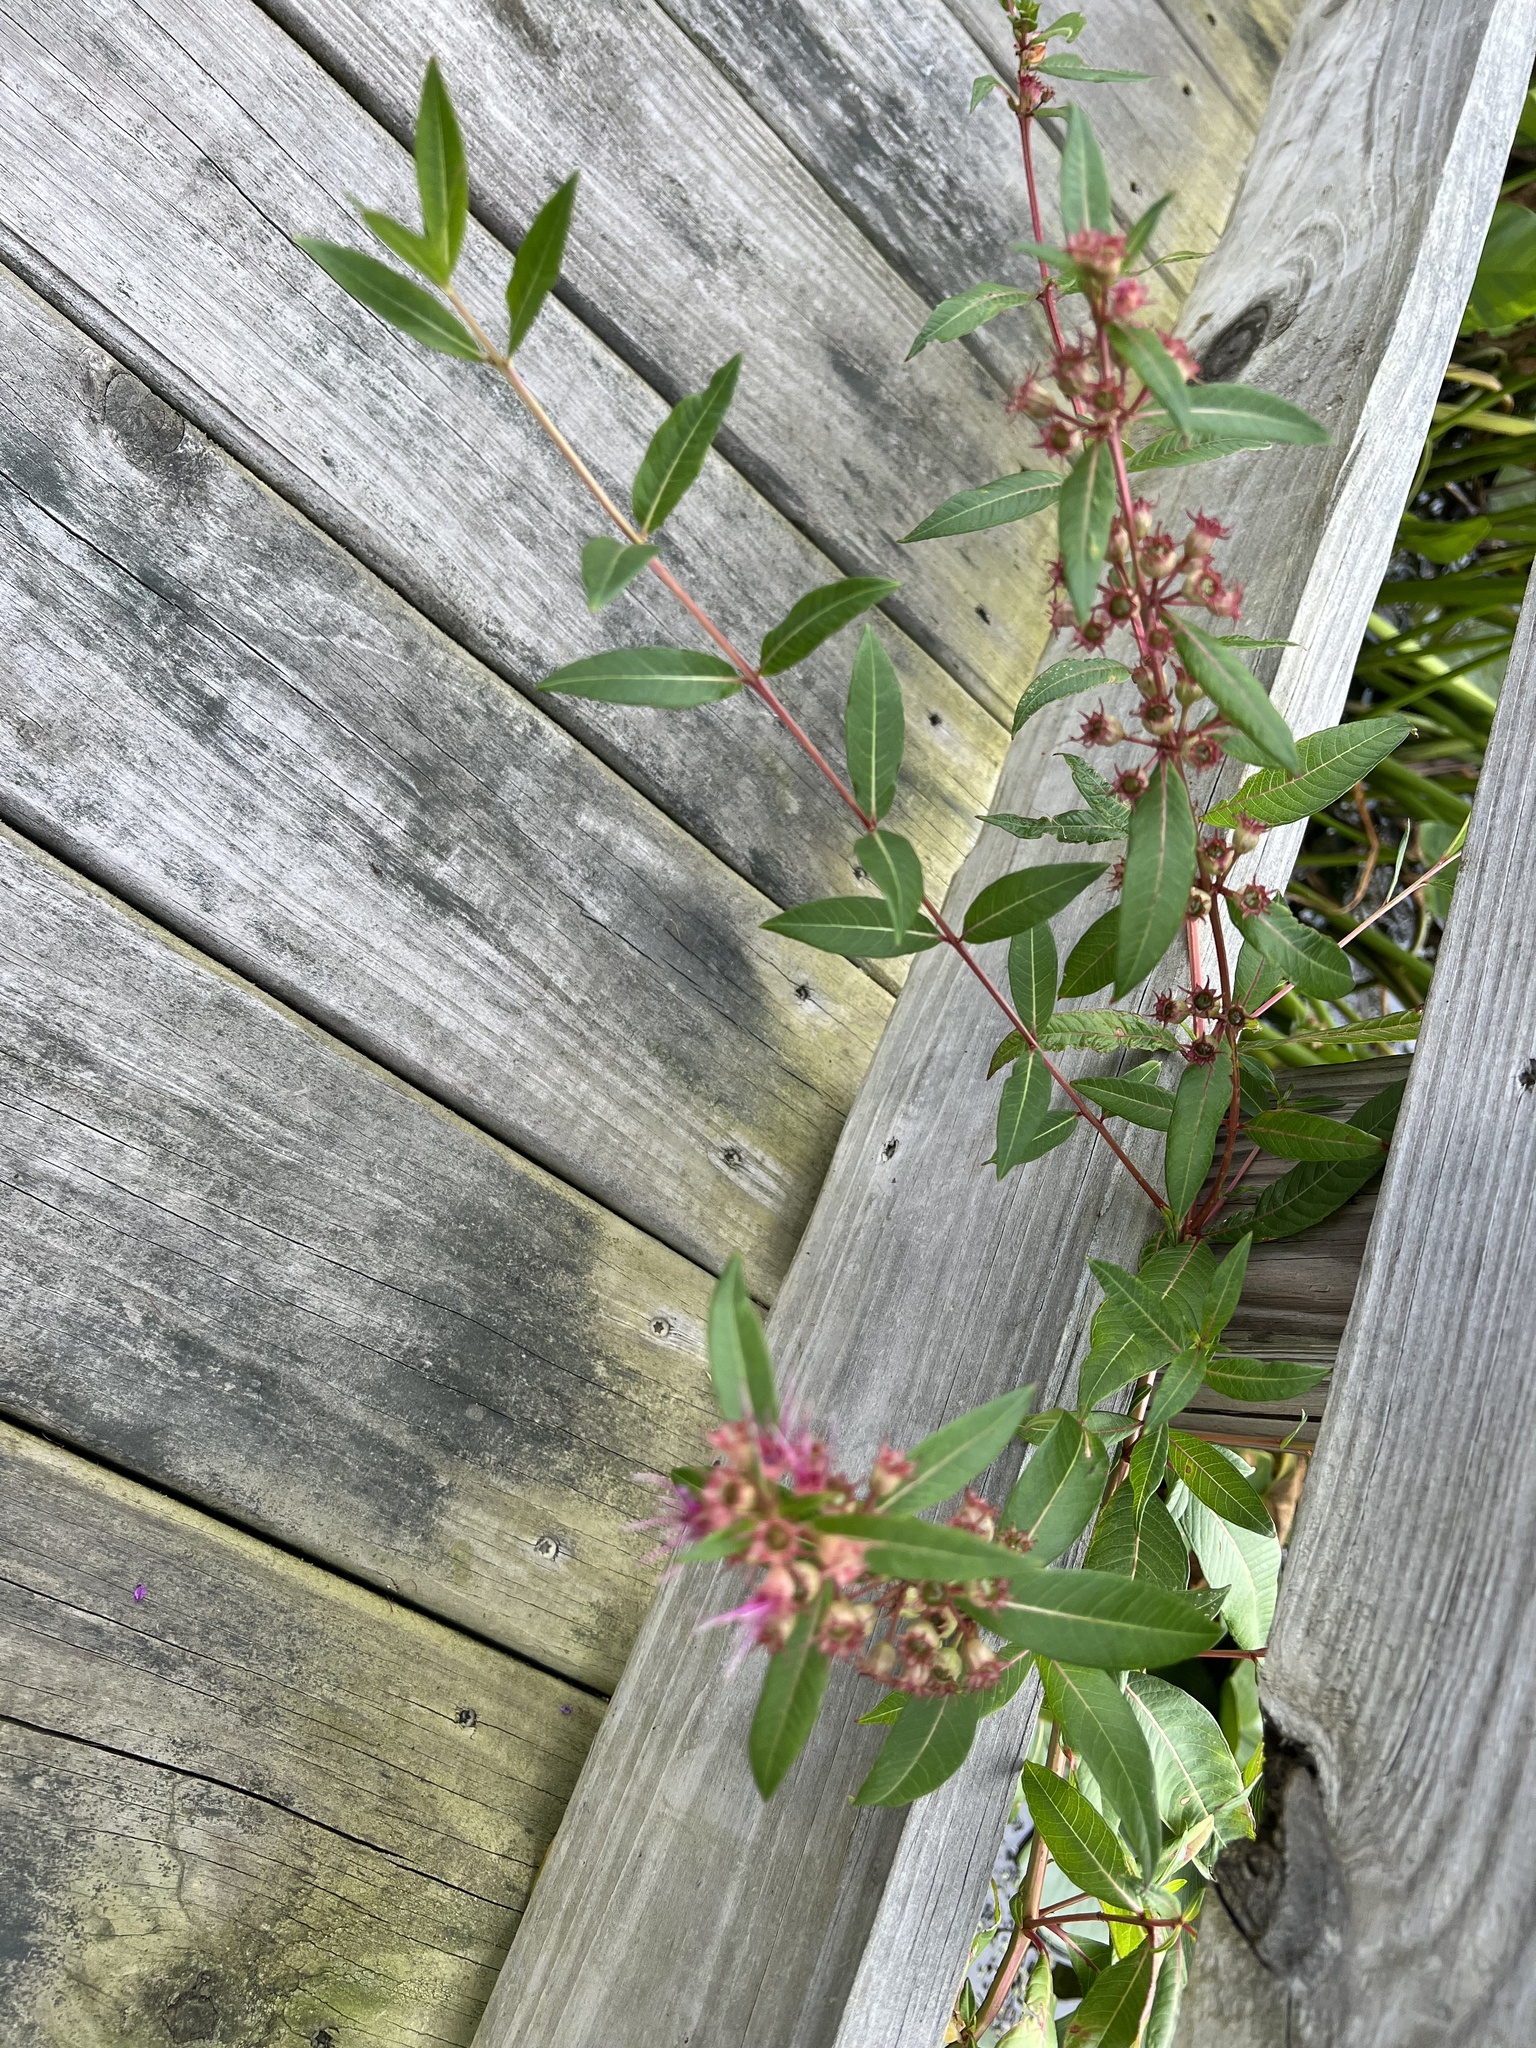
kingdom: Plantae
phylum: Tracheophyta
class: Magnoliopsida
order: Myrtales
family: Lythraceae
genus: Decodon
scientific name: Decodon verticillatus
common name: Hairy swamp loosestrife
